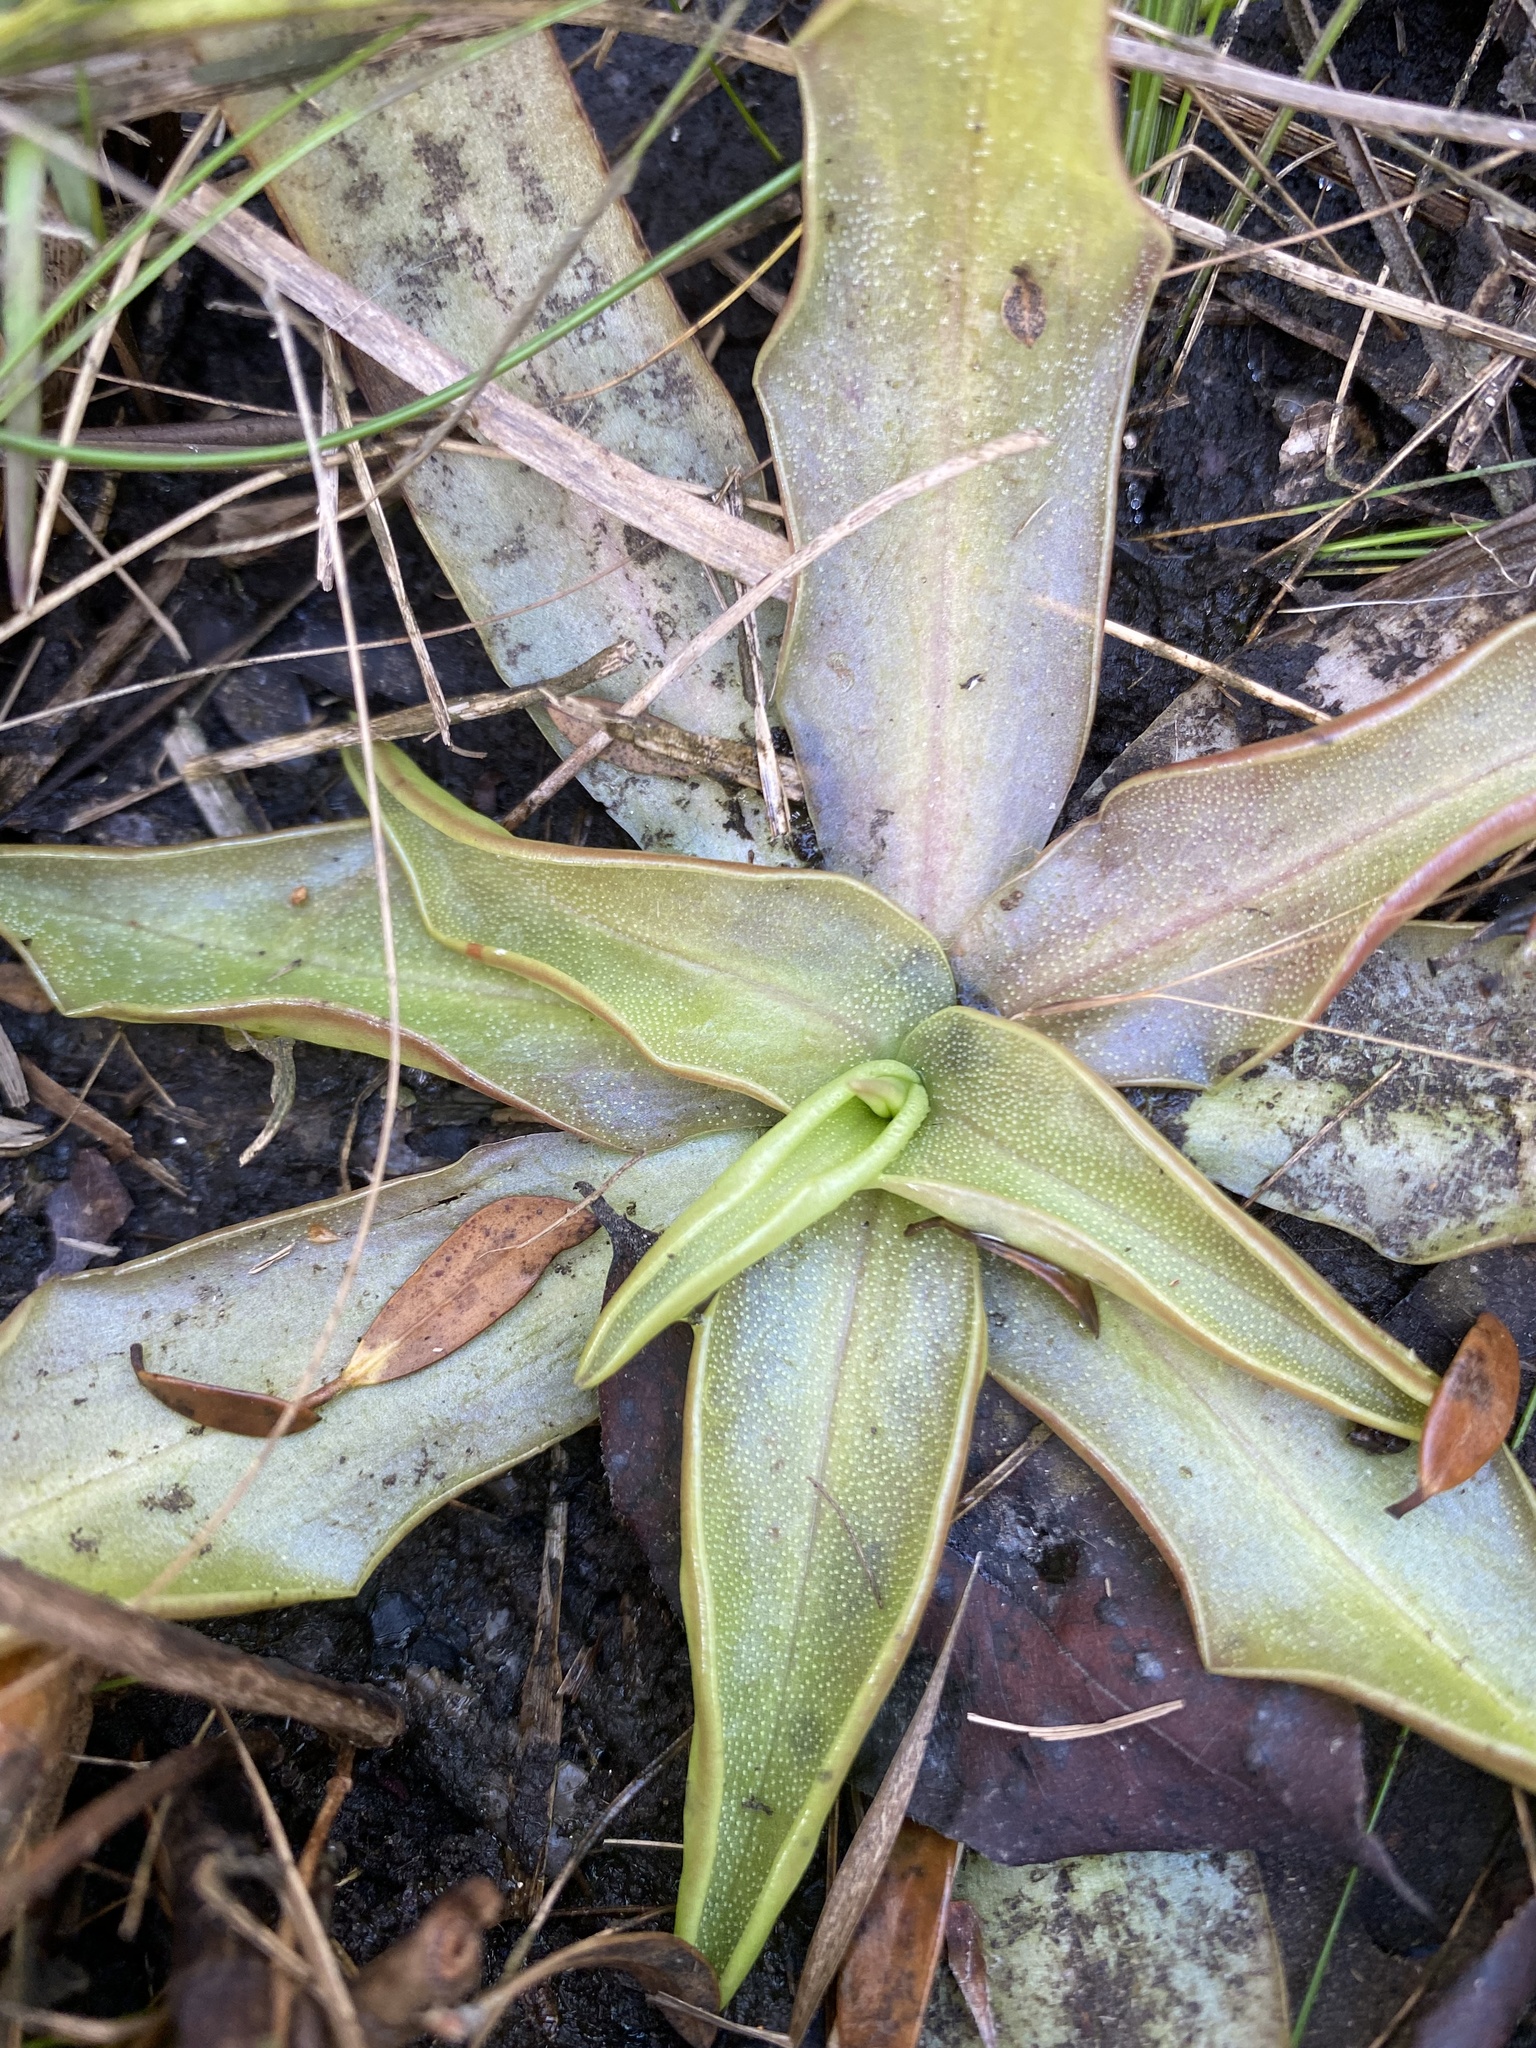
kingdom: Plantae
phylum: Tracheophyta
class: Magnoliopsida
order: Lamiales
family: Lentibulariaceae
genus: Pinguicula
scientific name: Pinguicula planifolia
